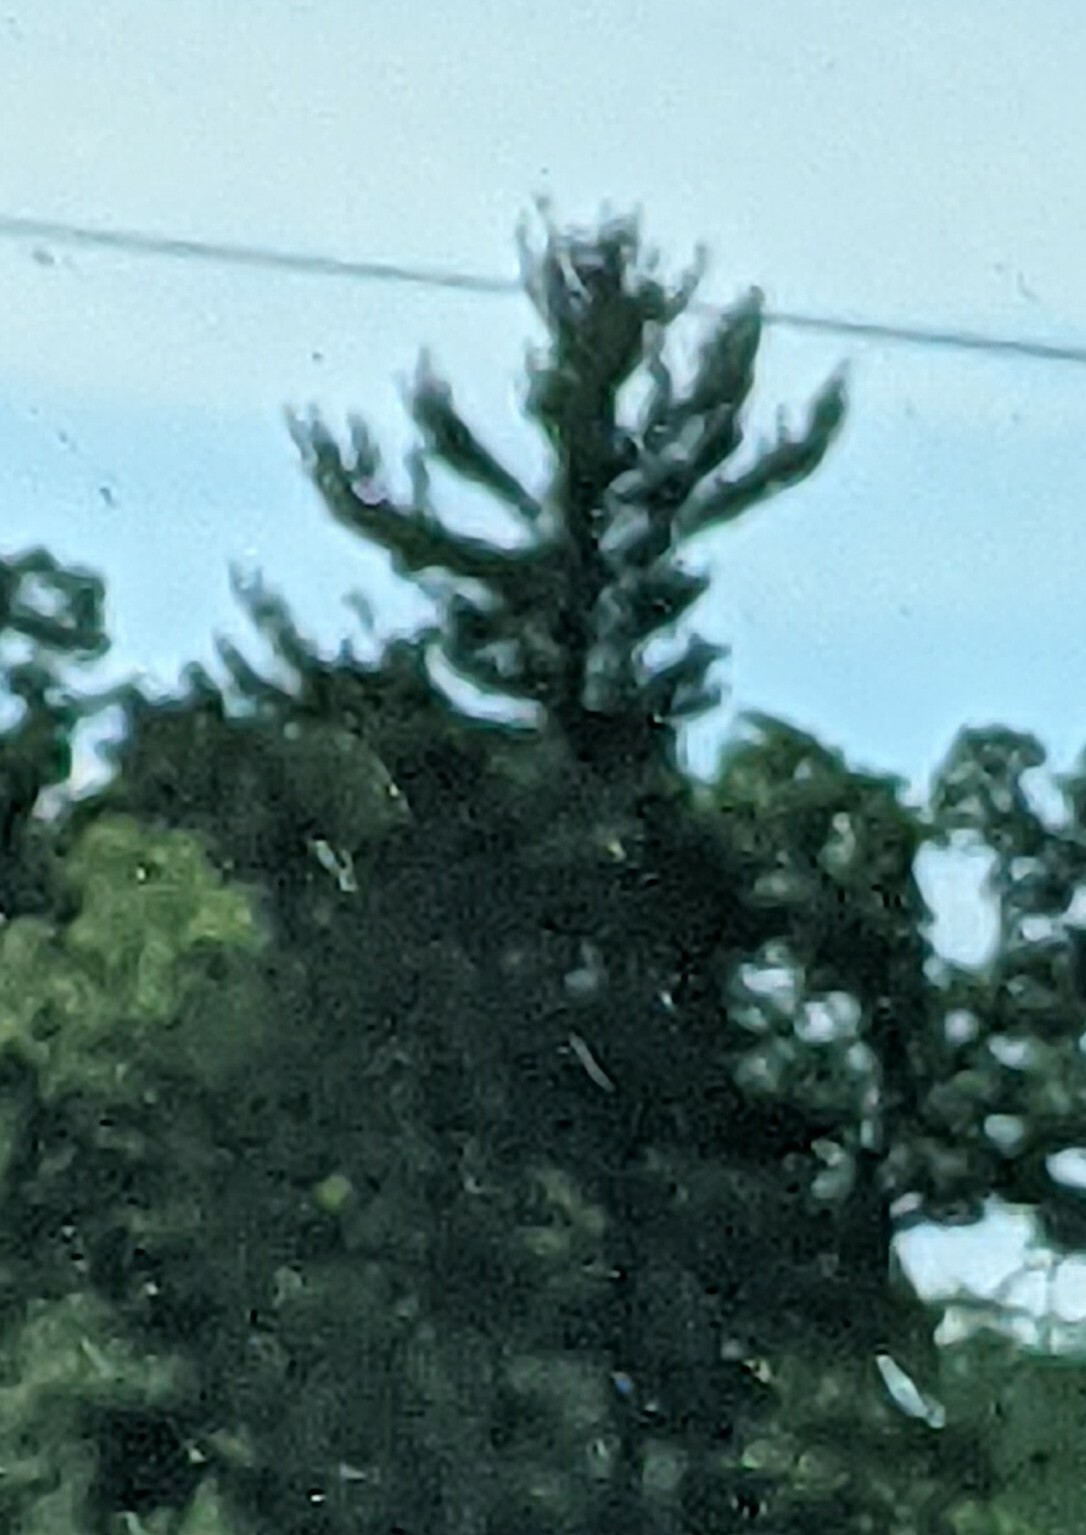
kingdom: Plantae
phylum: Tracheophyta
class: Pinopsida
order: Pinales
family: Pinaceae
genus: Pinus
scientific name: Pinus strobus
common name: Weymouth pine
